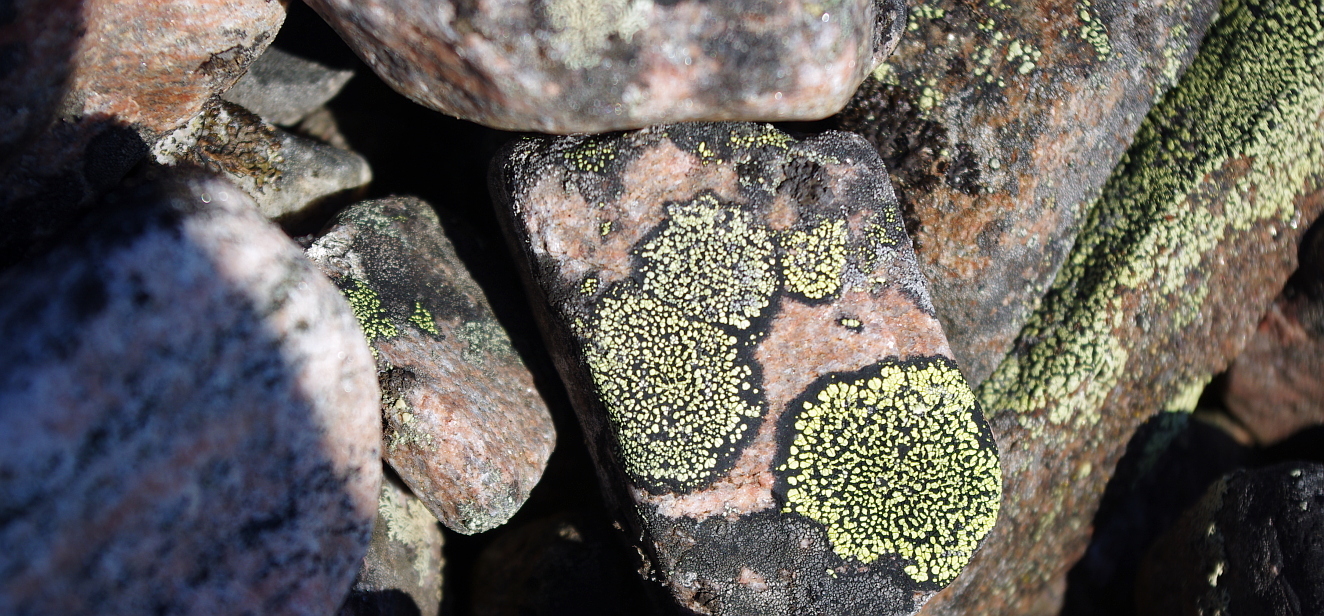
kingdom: Fungi
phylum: Ascomycota
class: Lecanoromycetes
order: Rhizocarpales
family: Rhizocarpaceae
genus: Rhizocarpon
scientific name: Rhizocarpon geographicum
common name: Yellow map lichen
